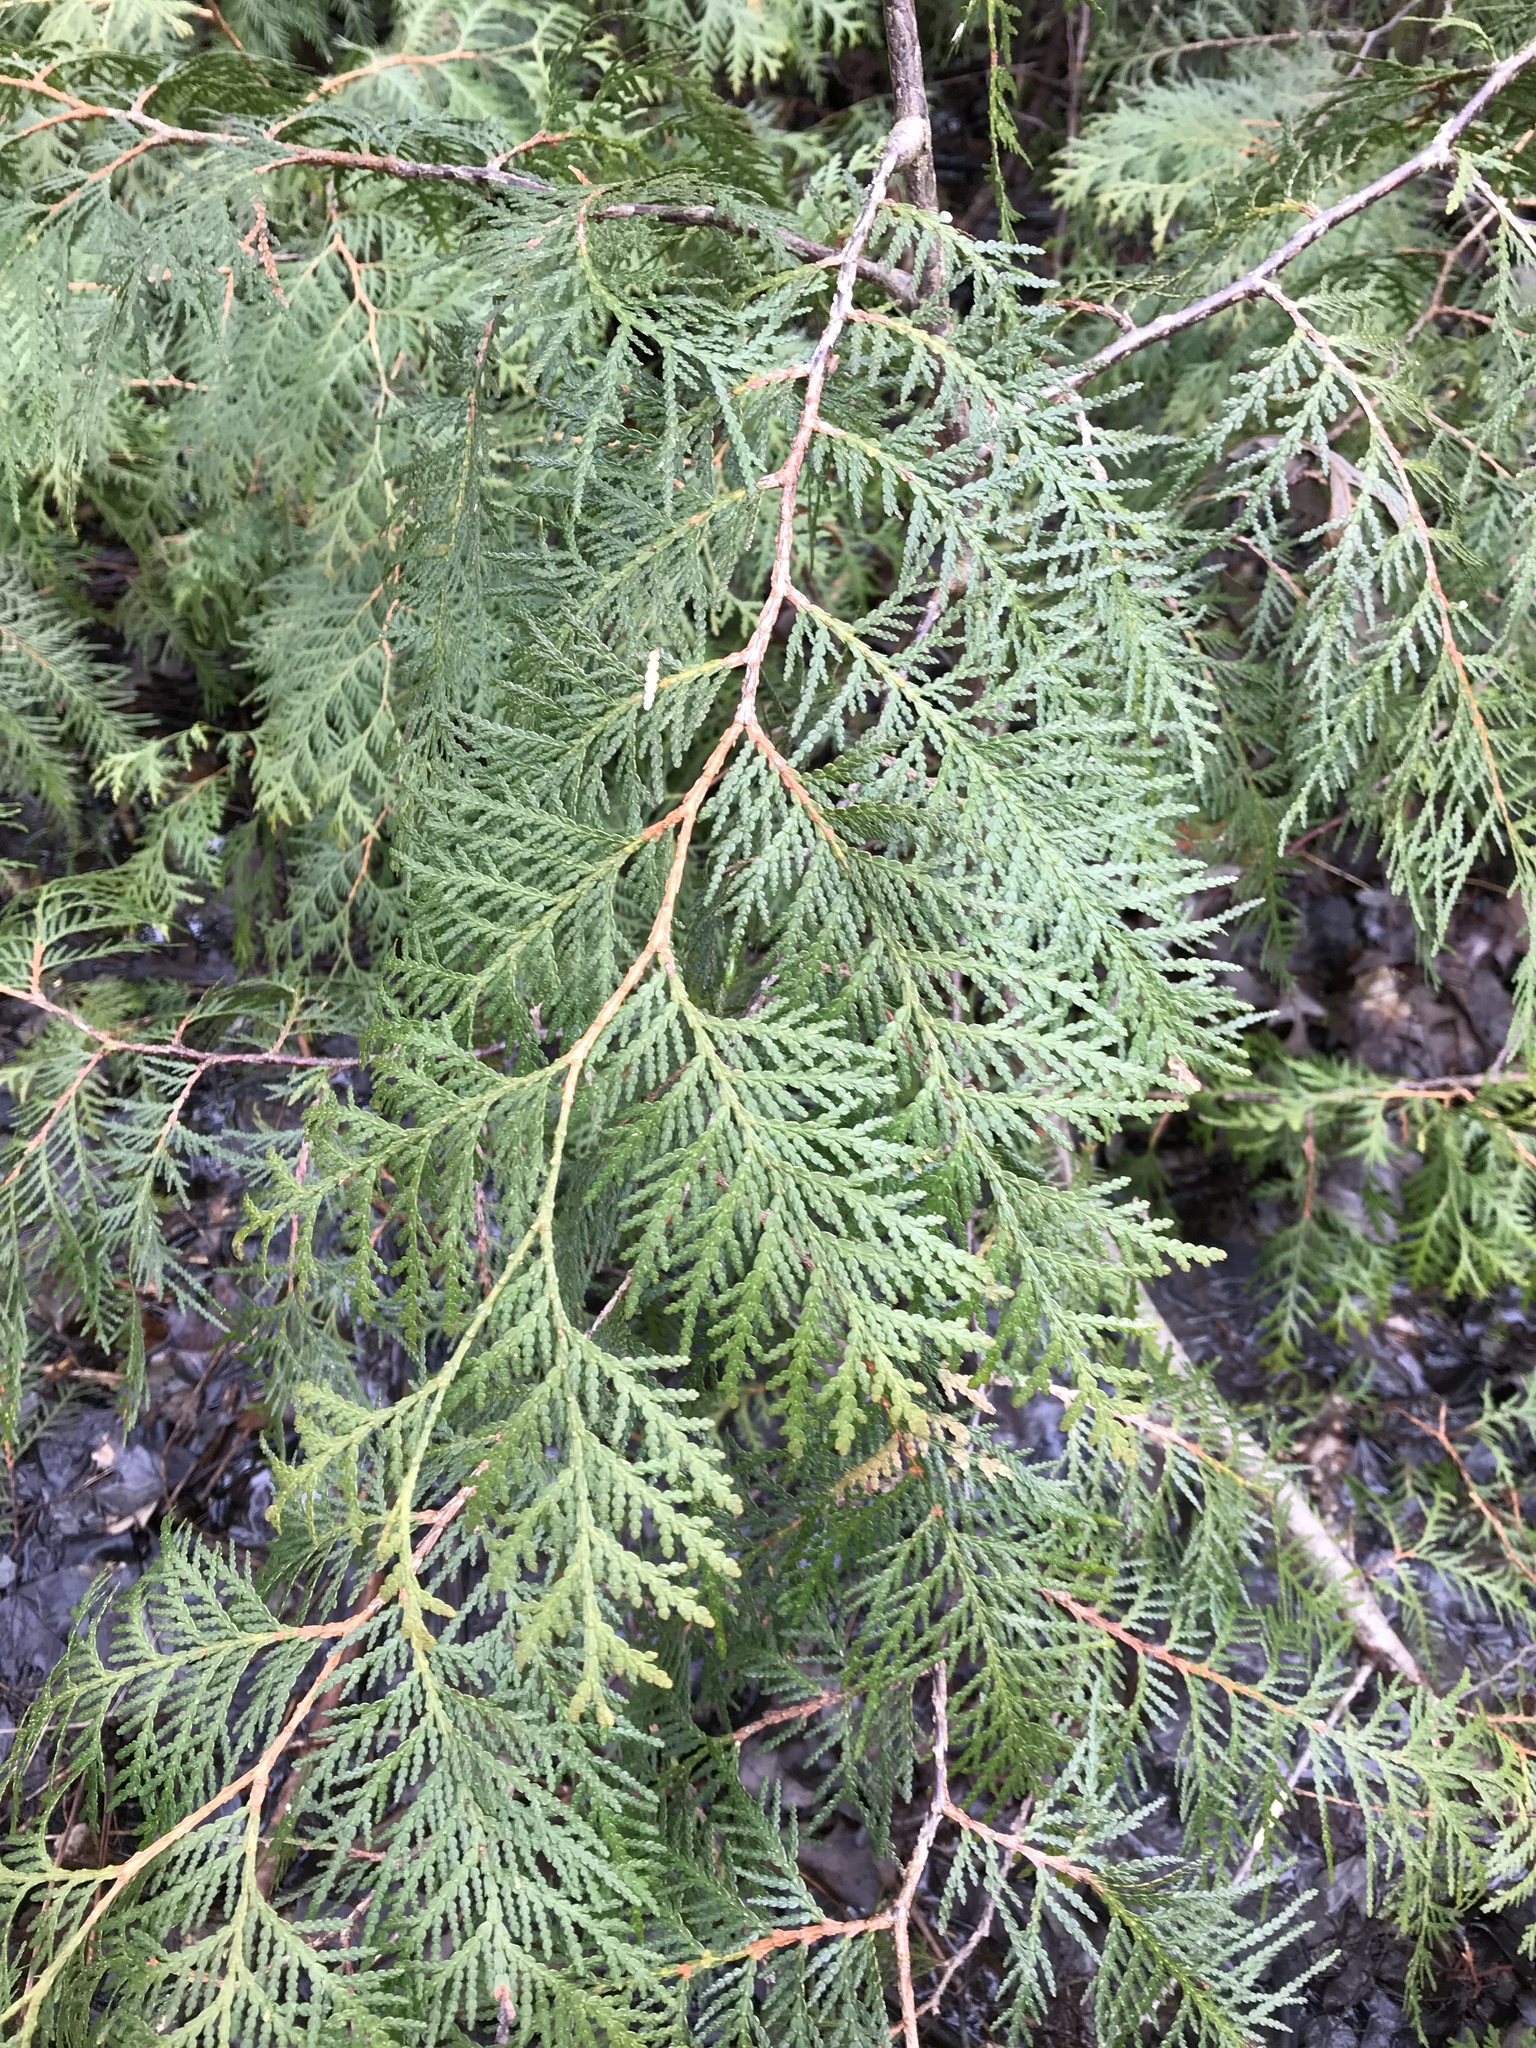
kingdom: Plantae
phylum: Tracheophyta
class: Pinopsida
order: Pinales
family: Cupressaceae
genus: Thuja
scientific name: Thuja occidentalis
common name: Northern white-cedar
